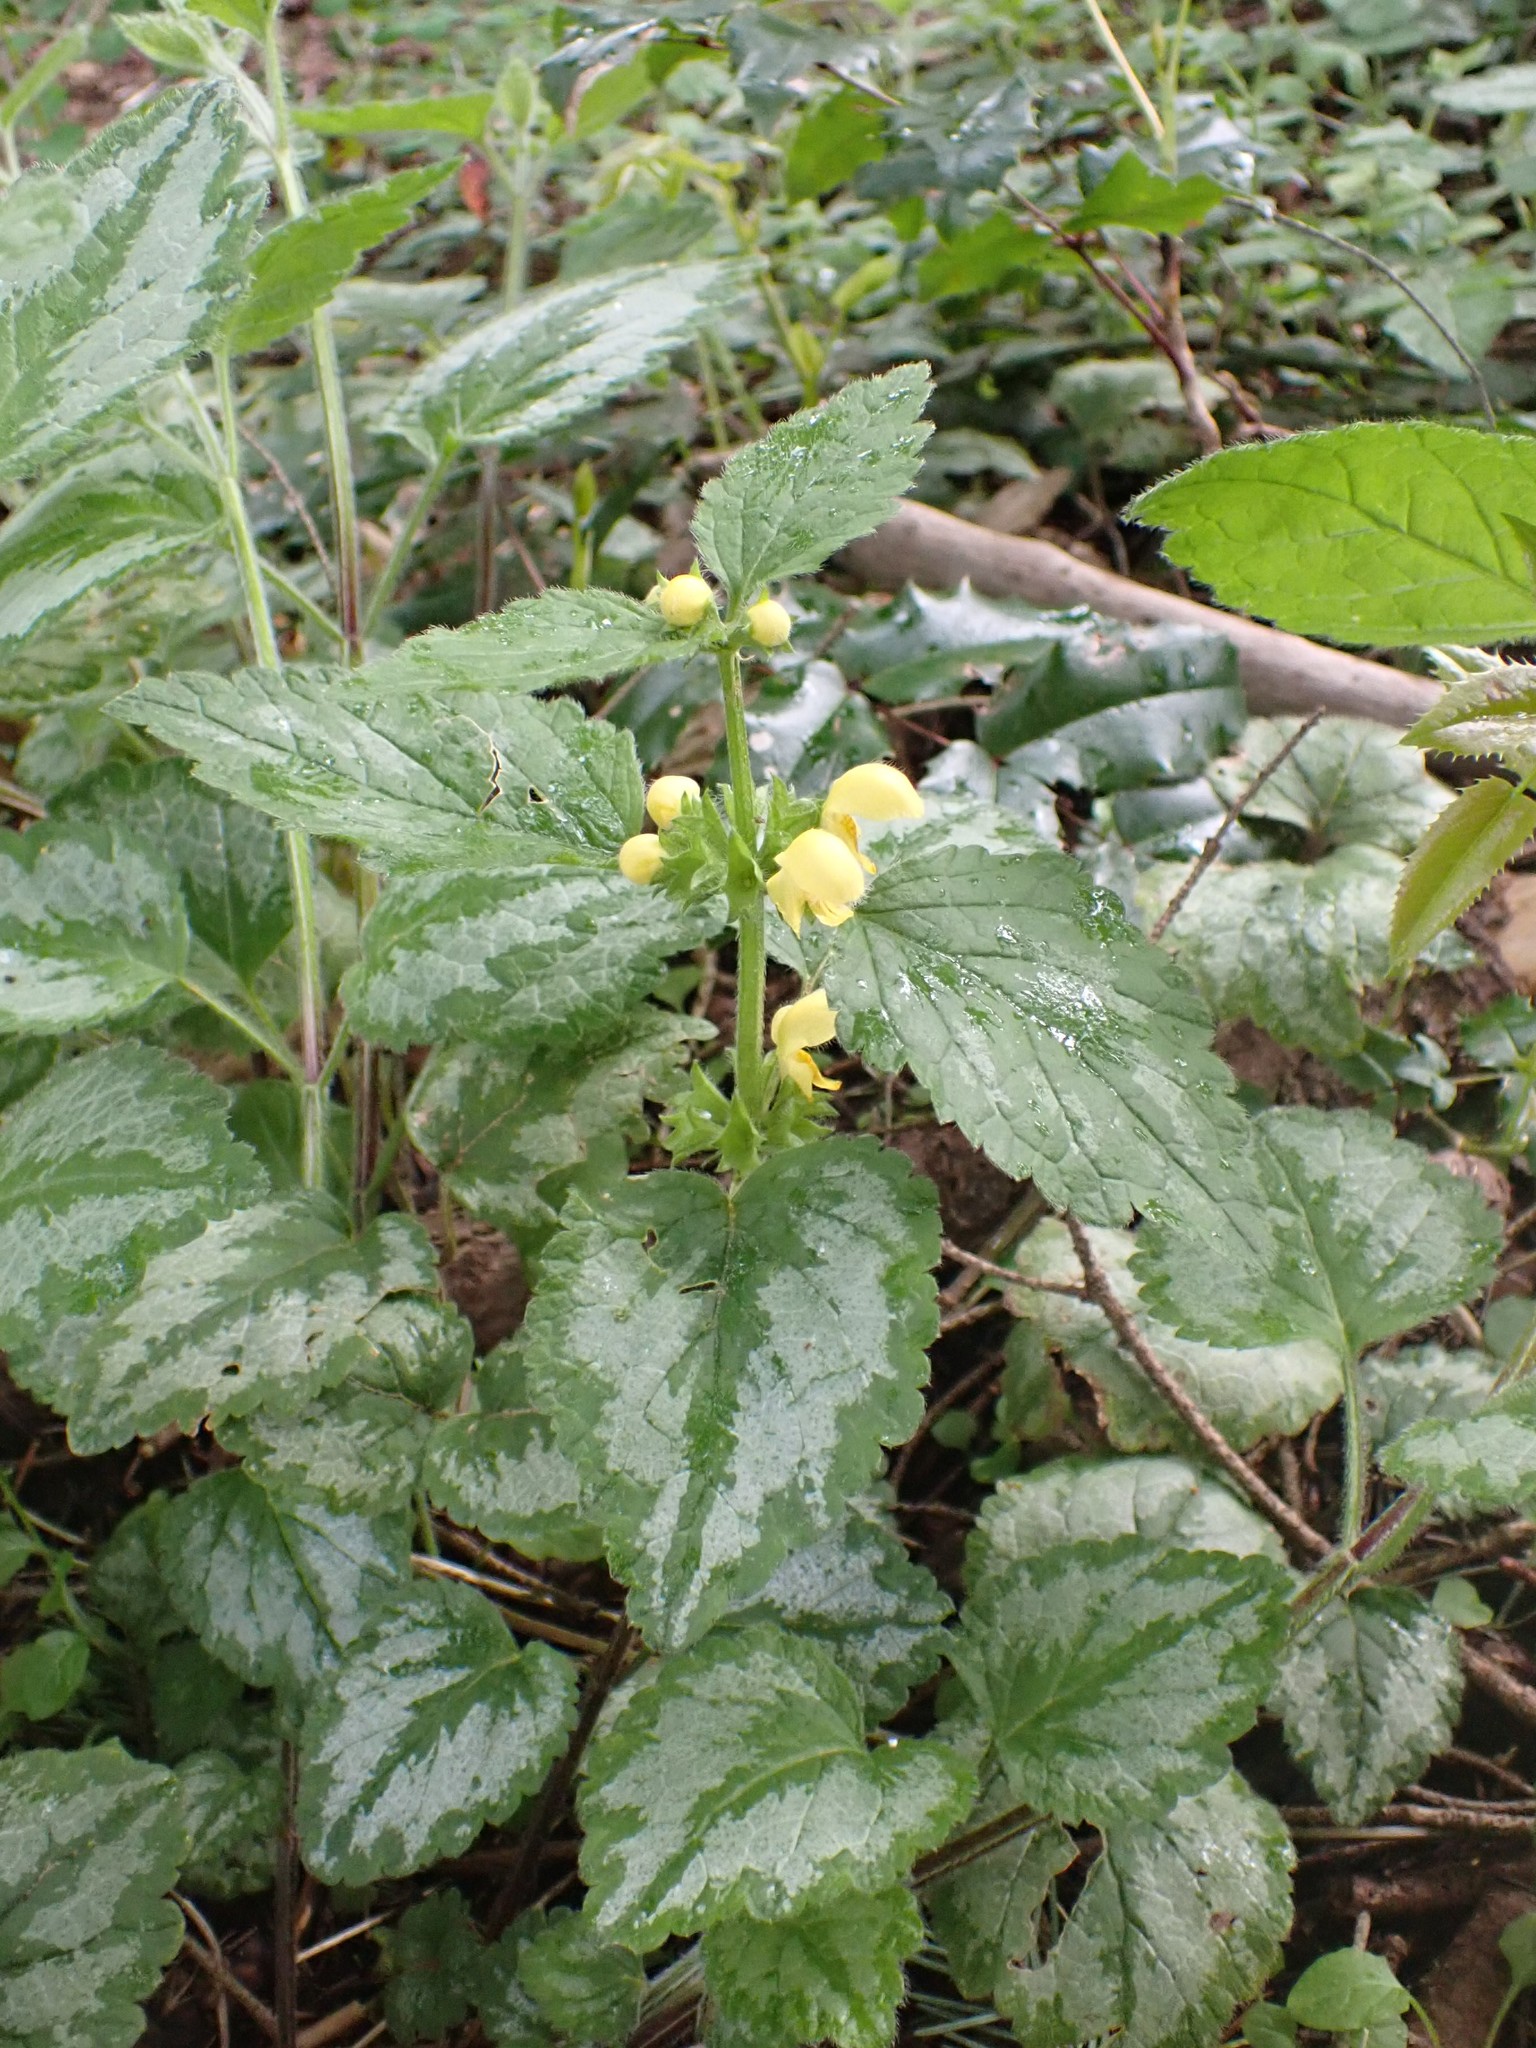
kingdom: Plantae
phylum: Tracheophyta
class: Magnoliopsida
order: Lamiales
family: Lamiaceae
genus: Lamium
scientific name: Lamium galeobdolon
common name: Yellow archangel
